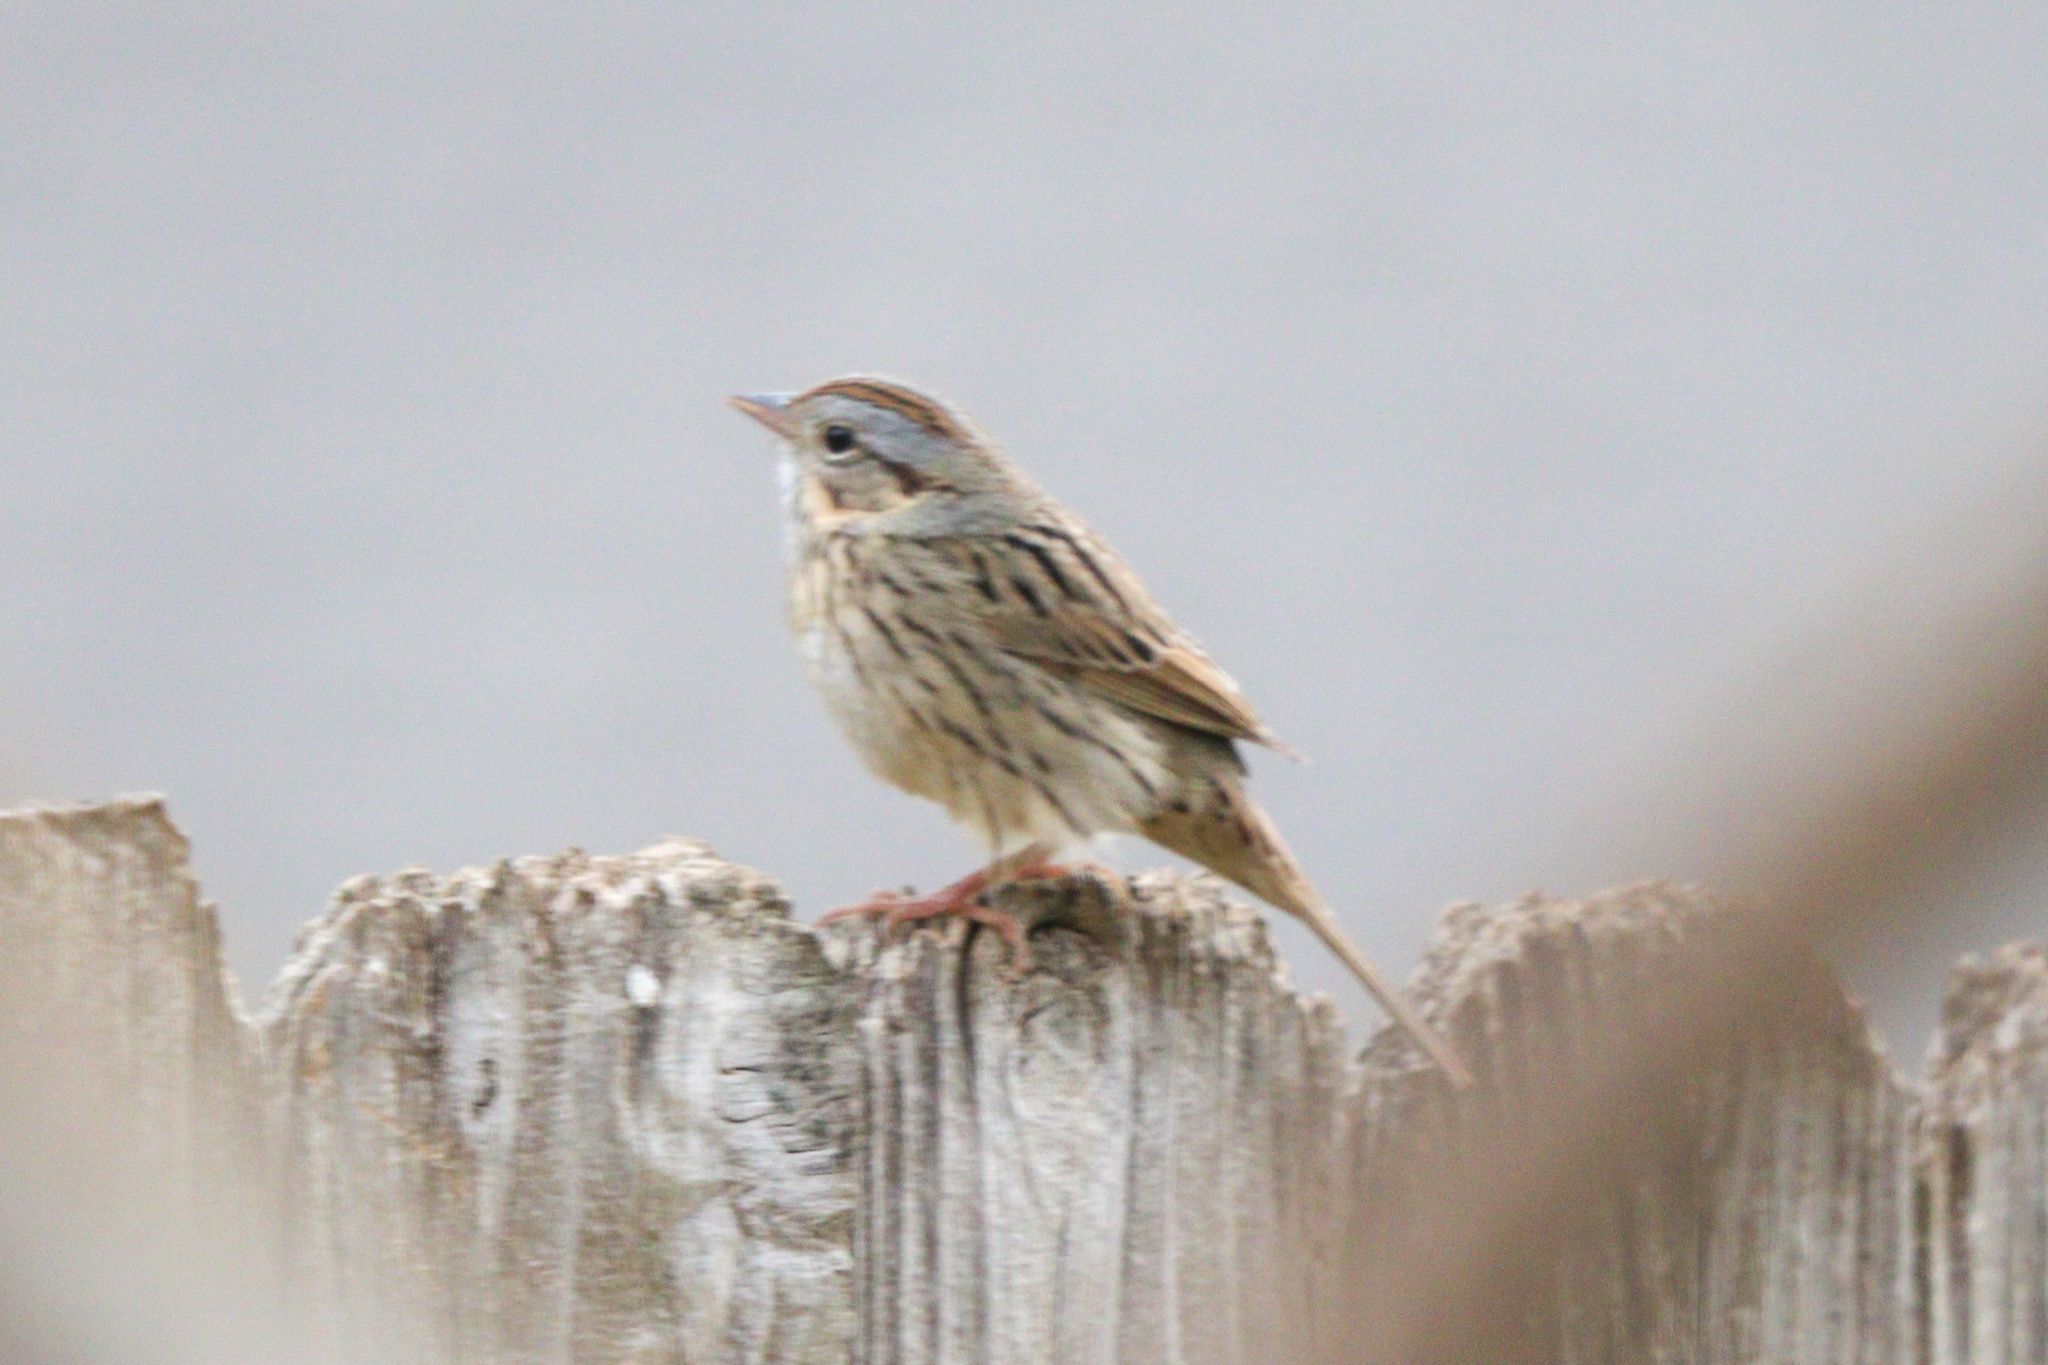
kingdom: Animalia
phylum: Chordata
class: Aves
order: Passeriformes
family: Passerellidae
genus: Melospiza
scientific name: Melospiza lincolnii
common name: Lincoln's sparrow
